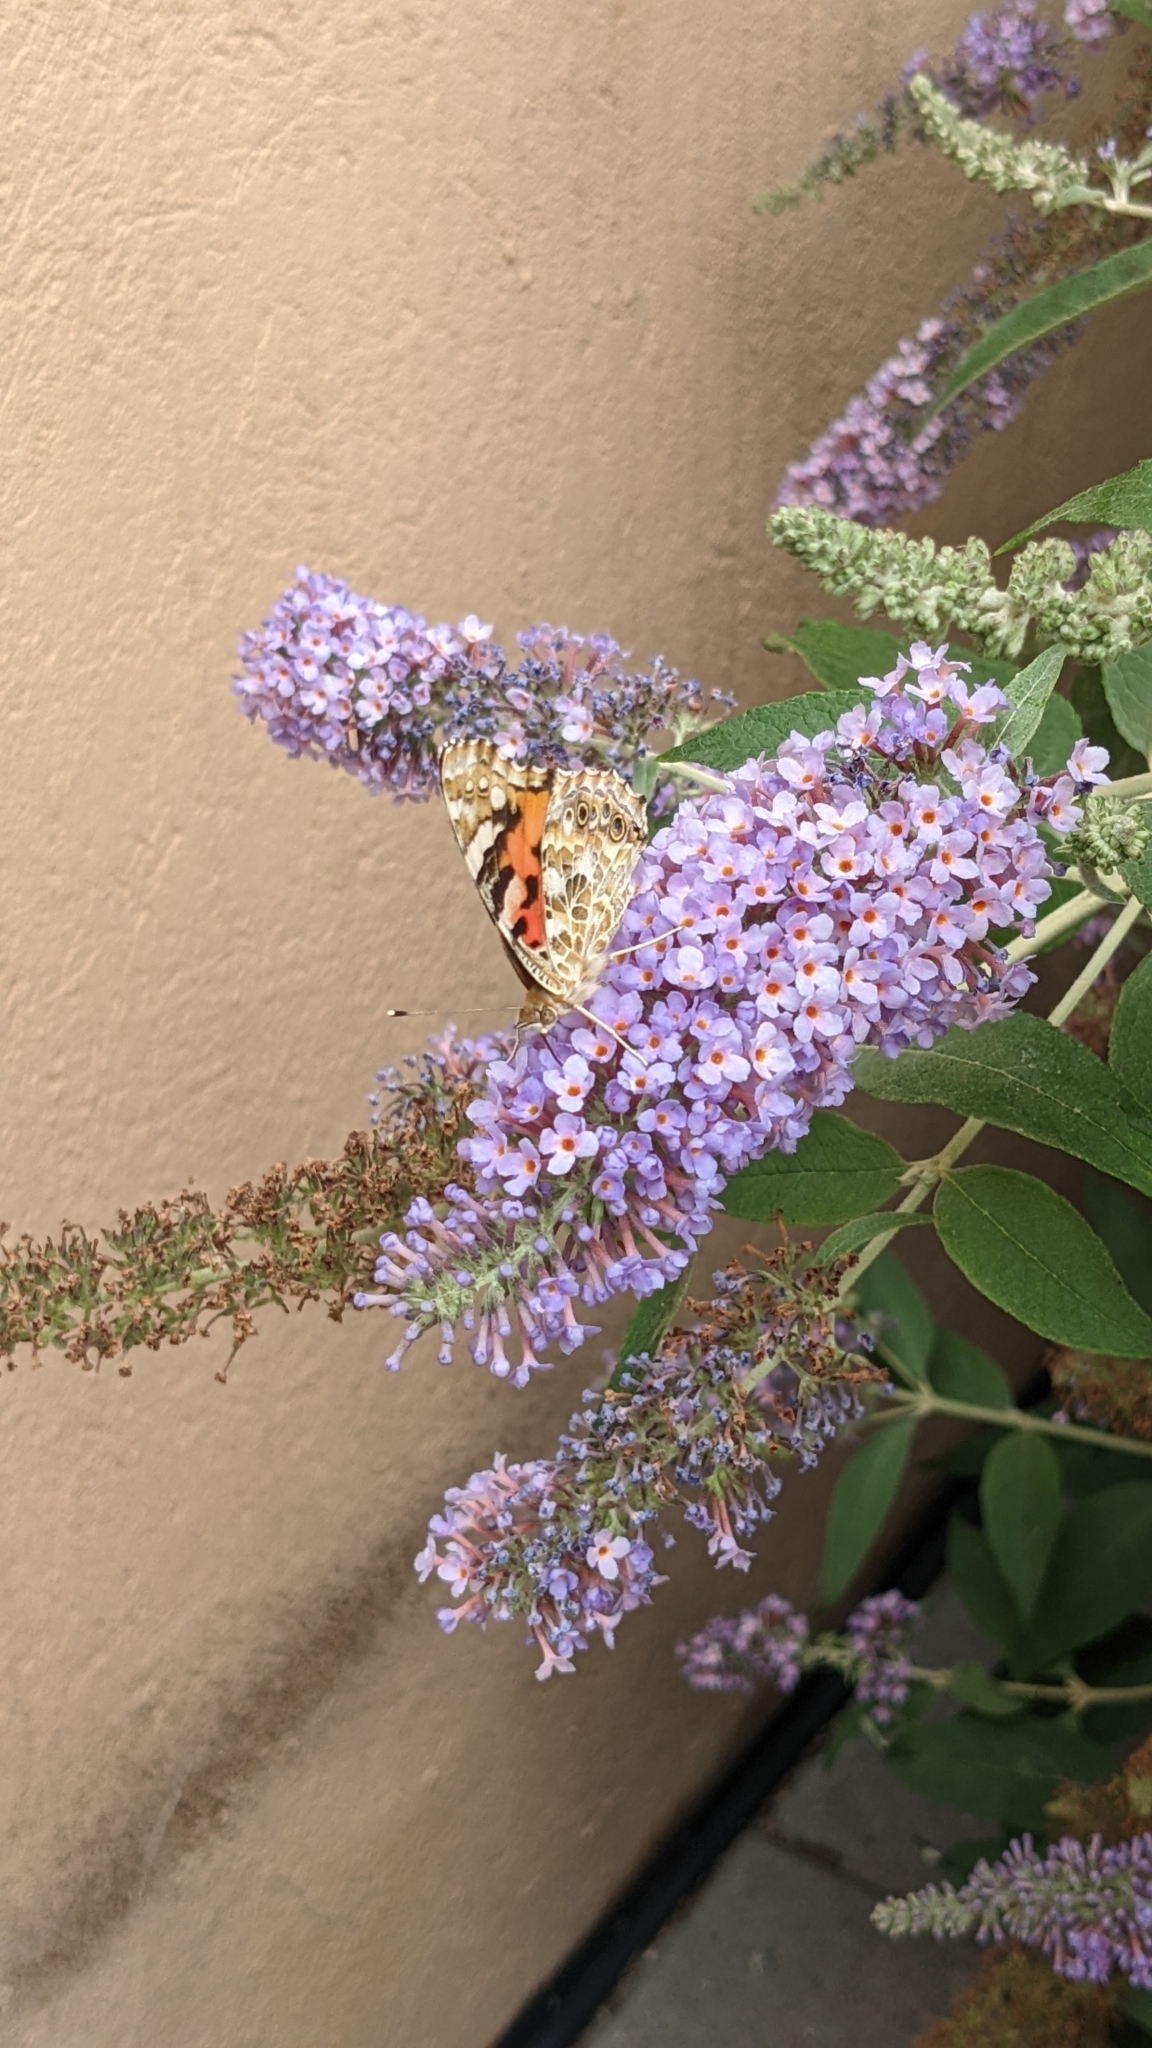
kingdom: Animalia
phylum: Arthropoda
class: Insecta
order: Lepidoptera
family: Nymphalidae
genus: Vanessa
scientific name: Vanessa cardui
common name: Painted lady
